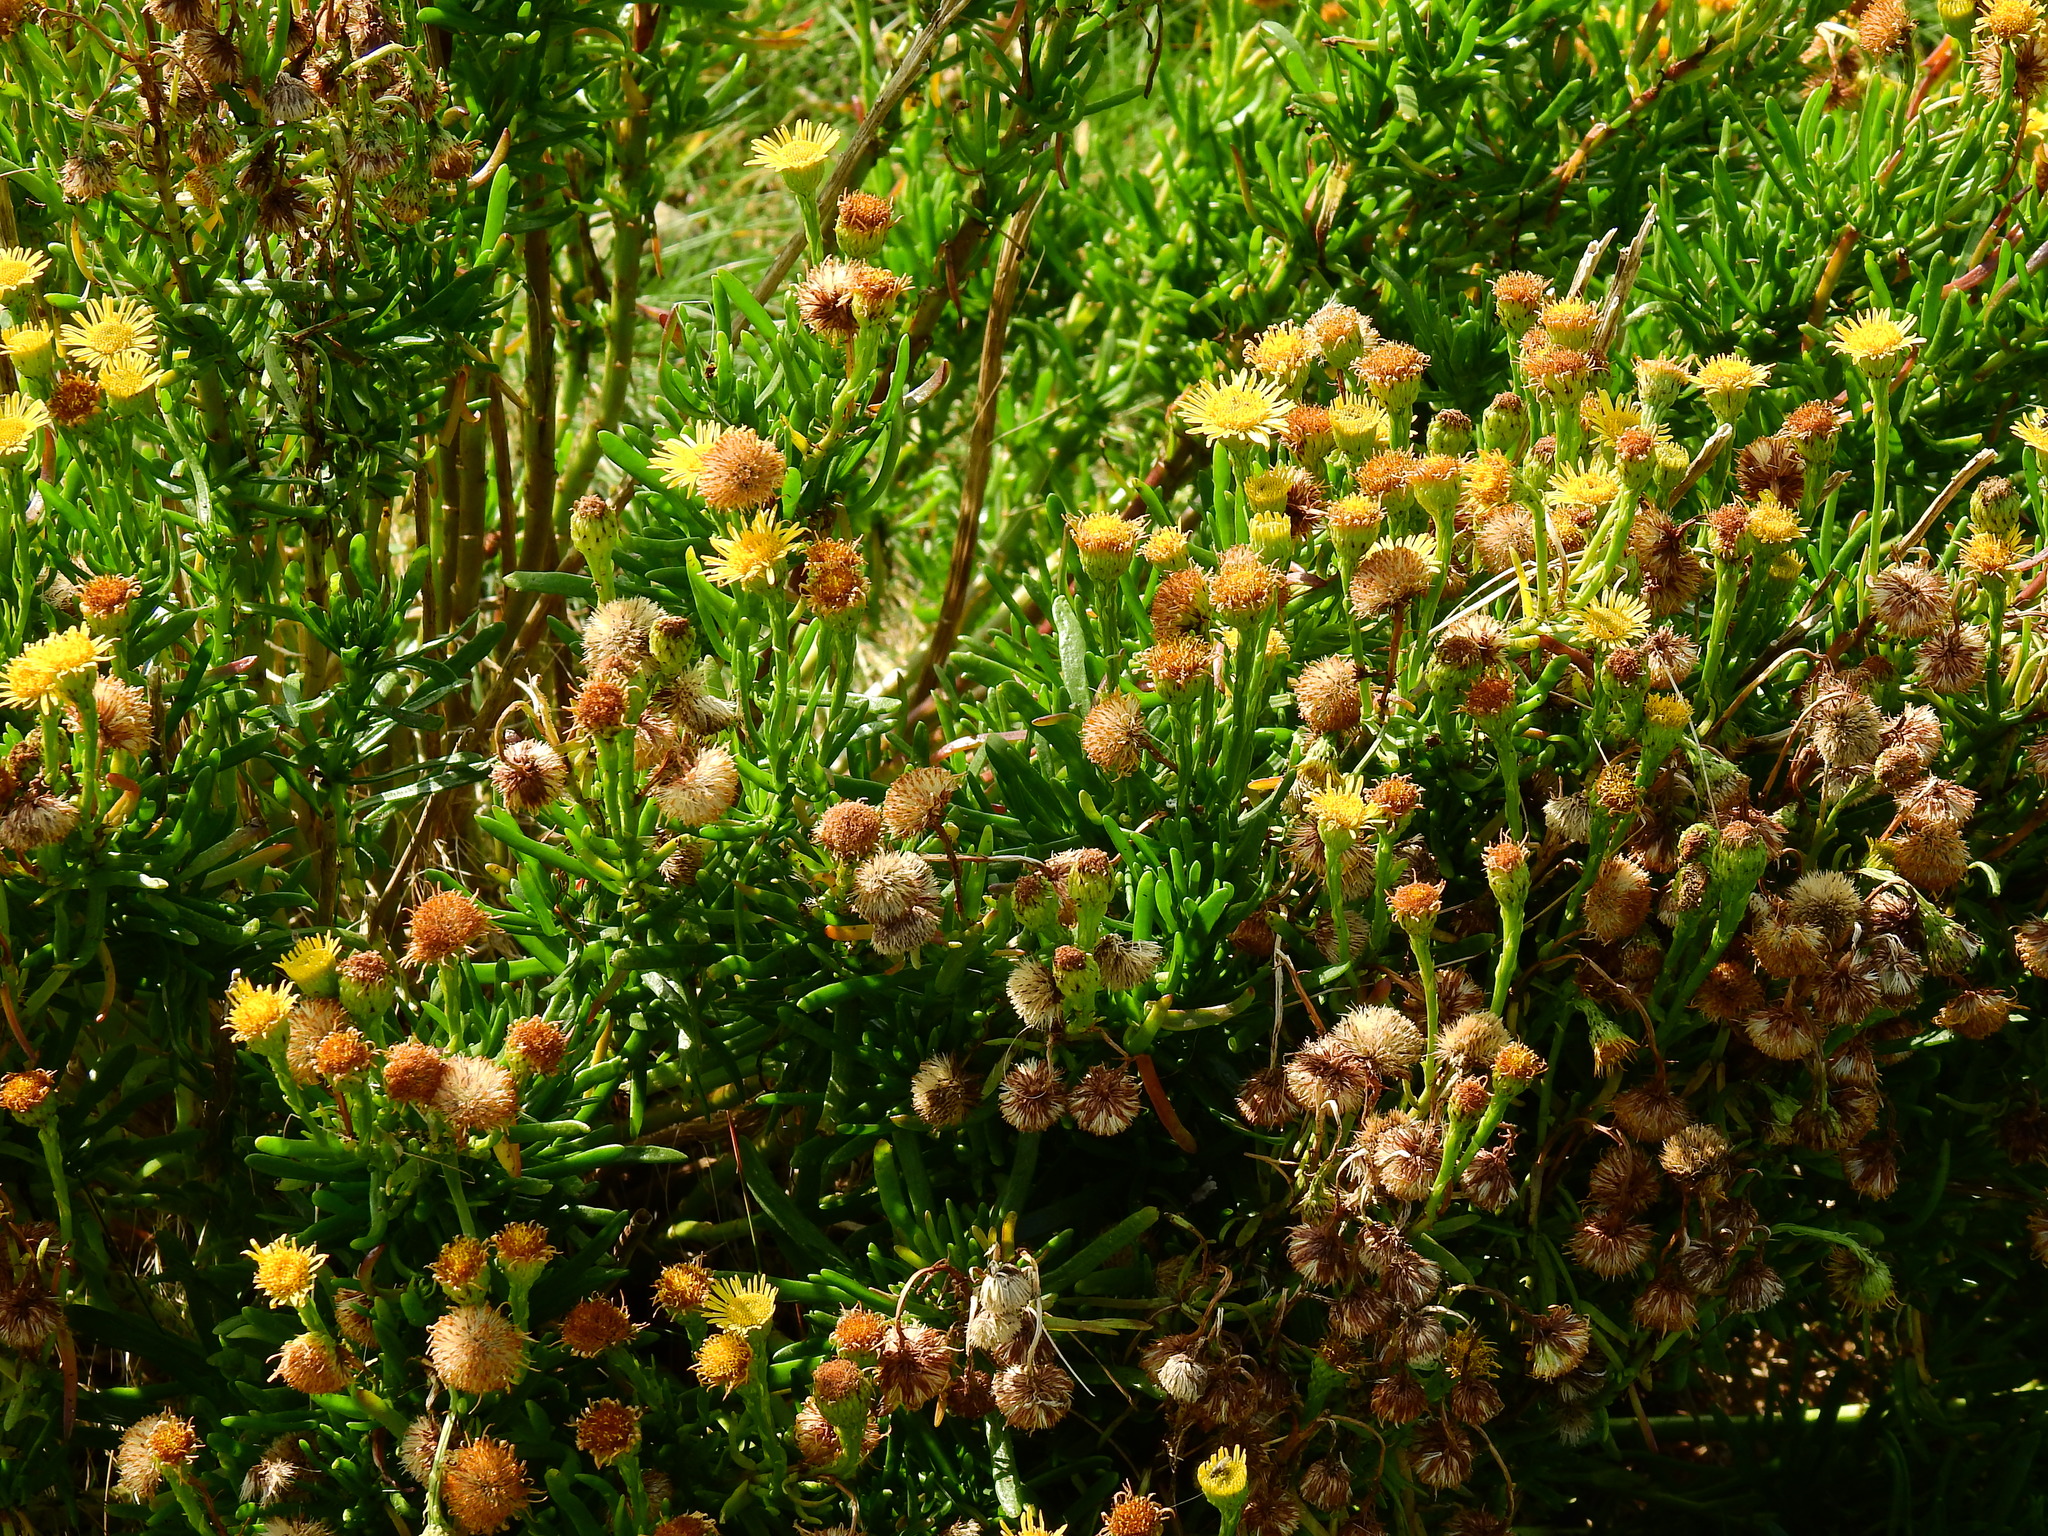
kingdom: Plantae
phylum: Tracheophyta
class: Magnoliopsida
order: Asterales
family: Asteraceae
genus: Limbarda
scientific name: Limbarda crithmoides
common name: Golden samphire
